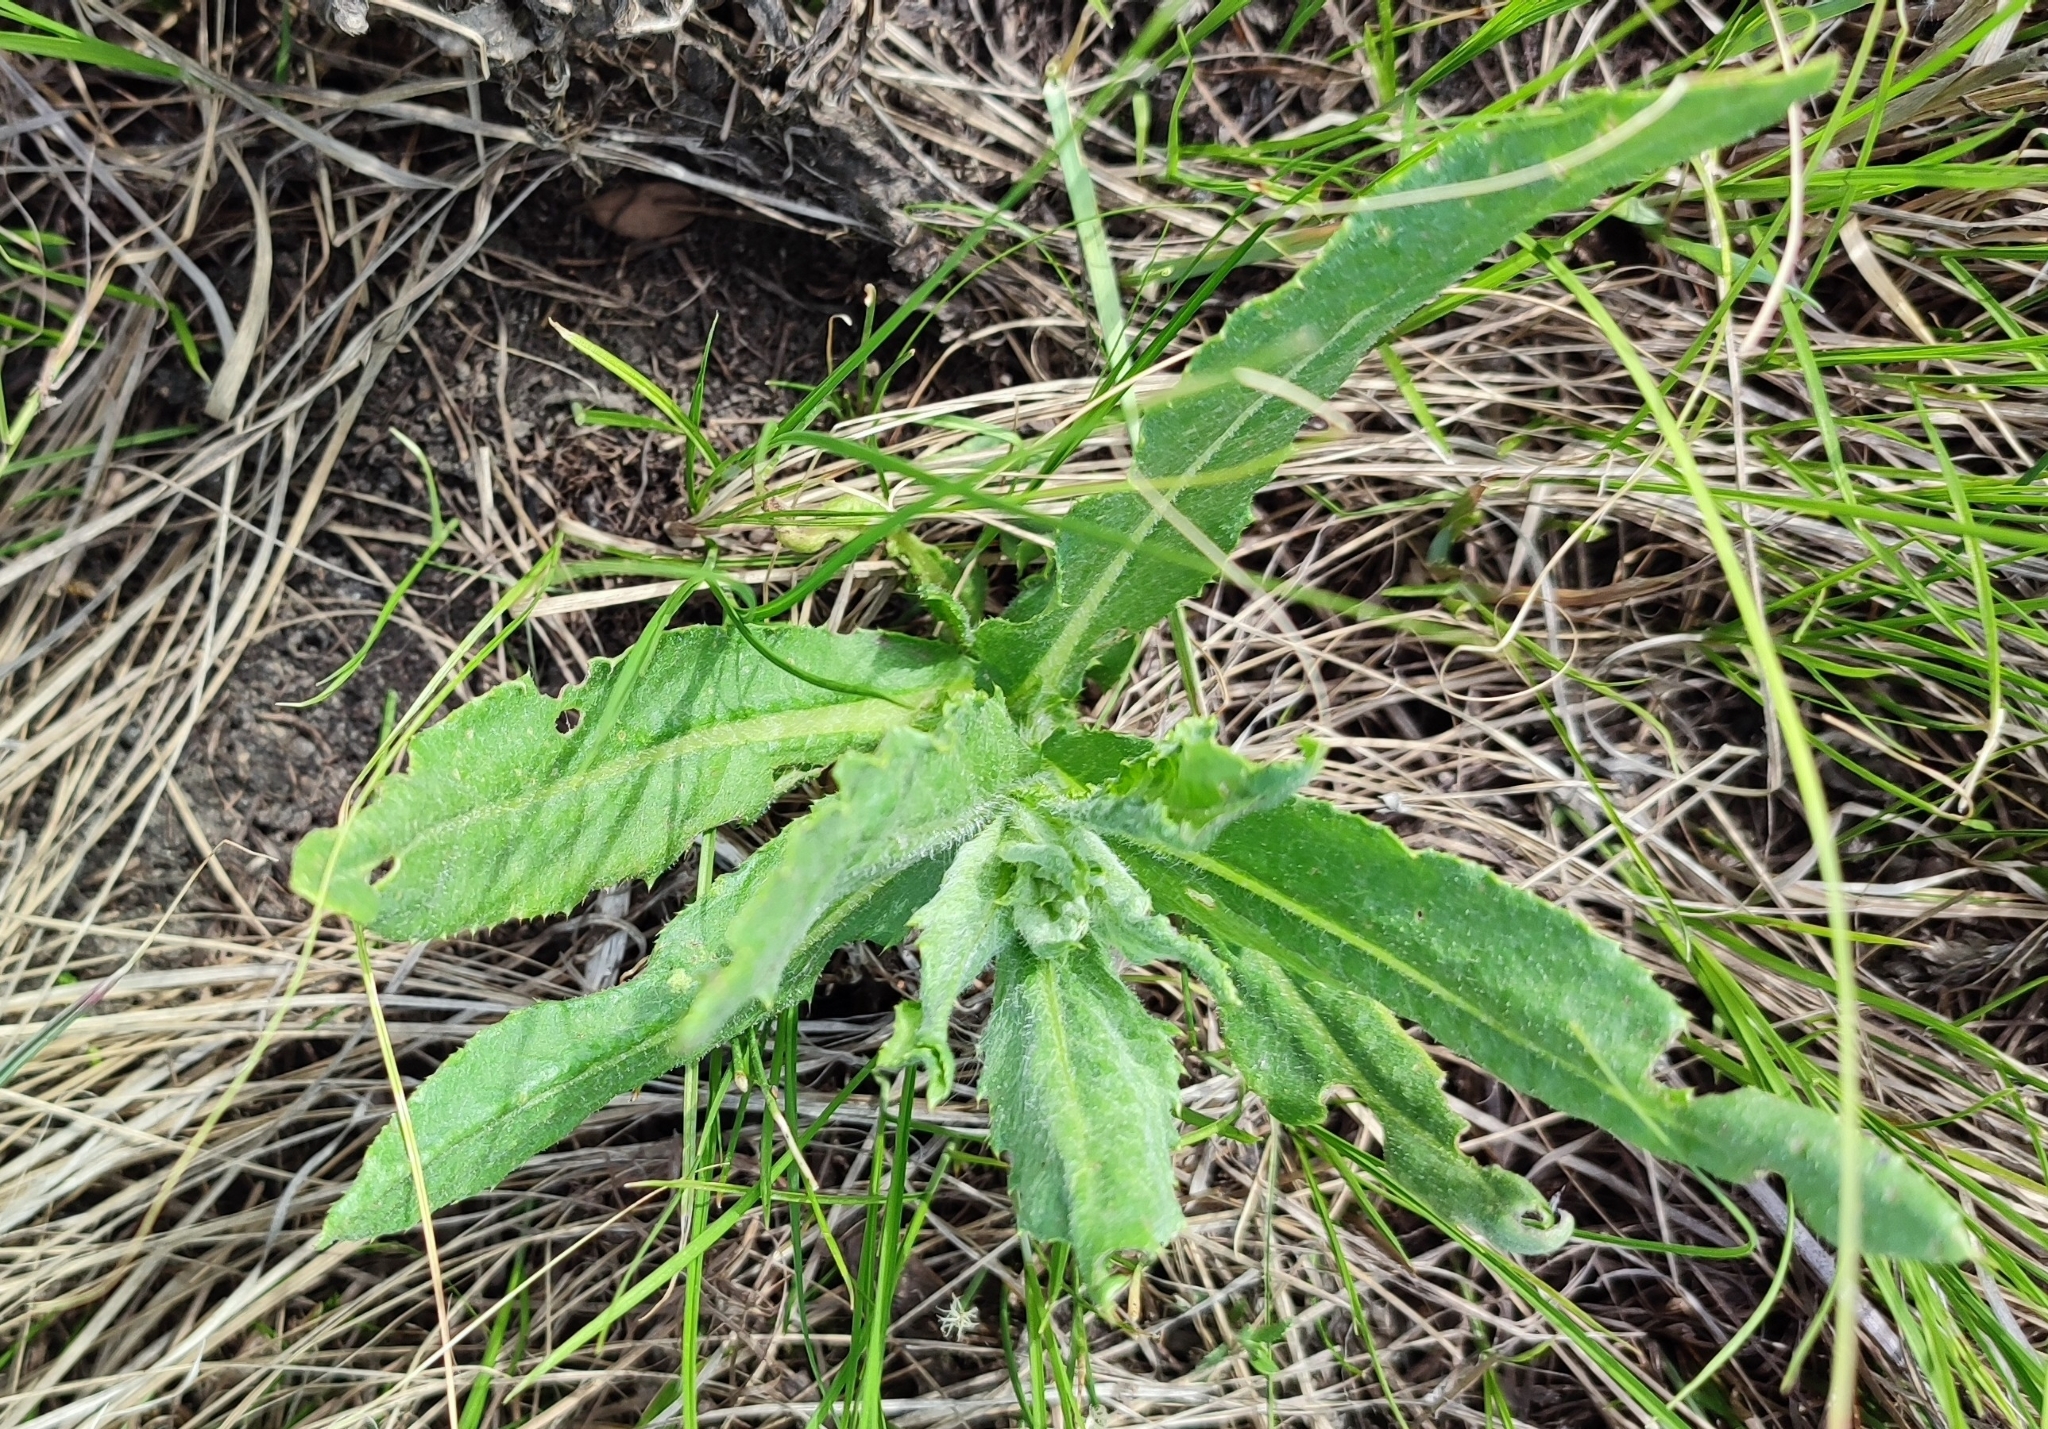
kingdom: Plantae
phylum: Tracheophyta
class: Magnoliopsida
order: Asterales
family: Asteraceae
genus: Cirsium
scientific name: Cirsium arvense
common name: Creeping thistle
